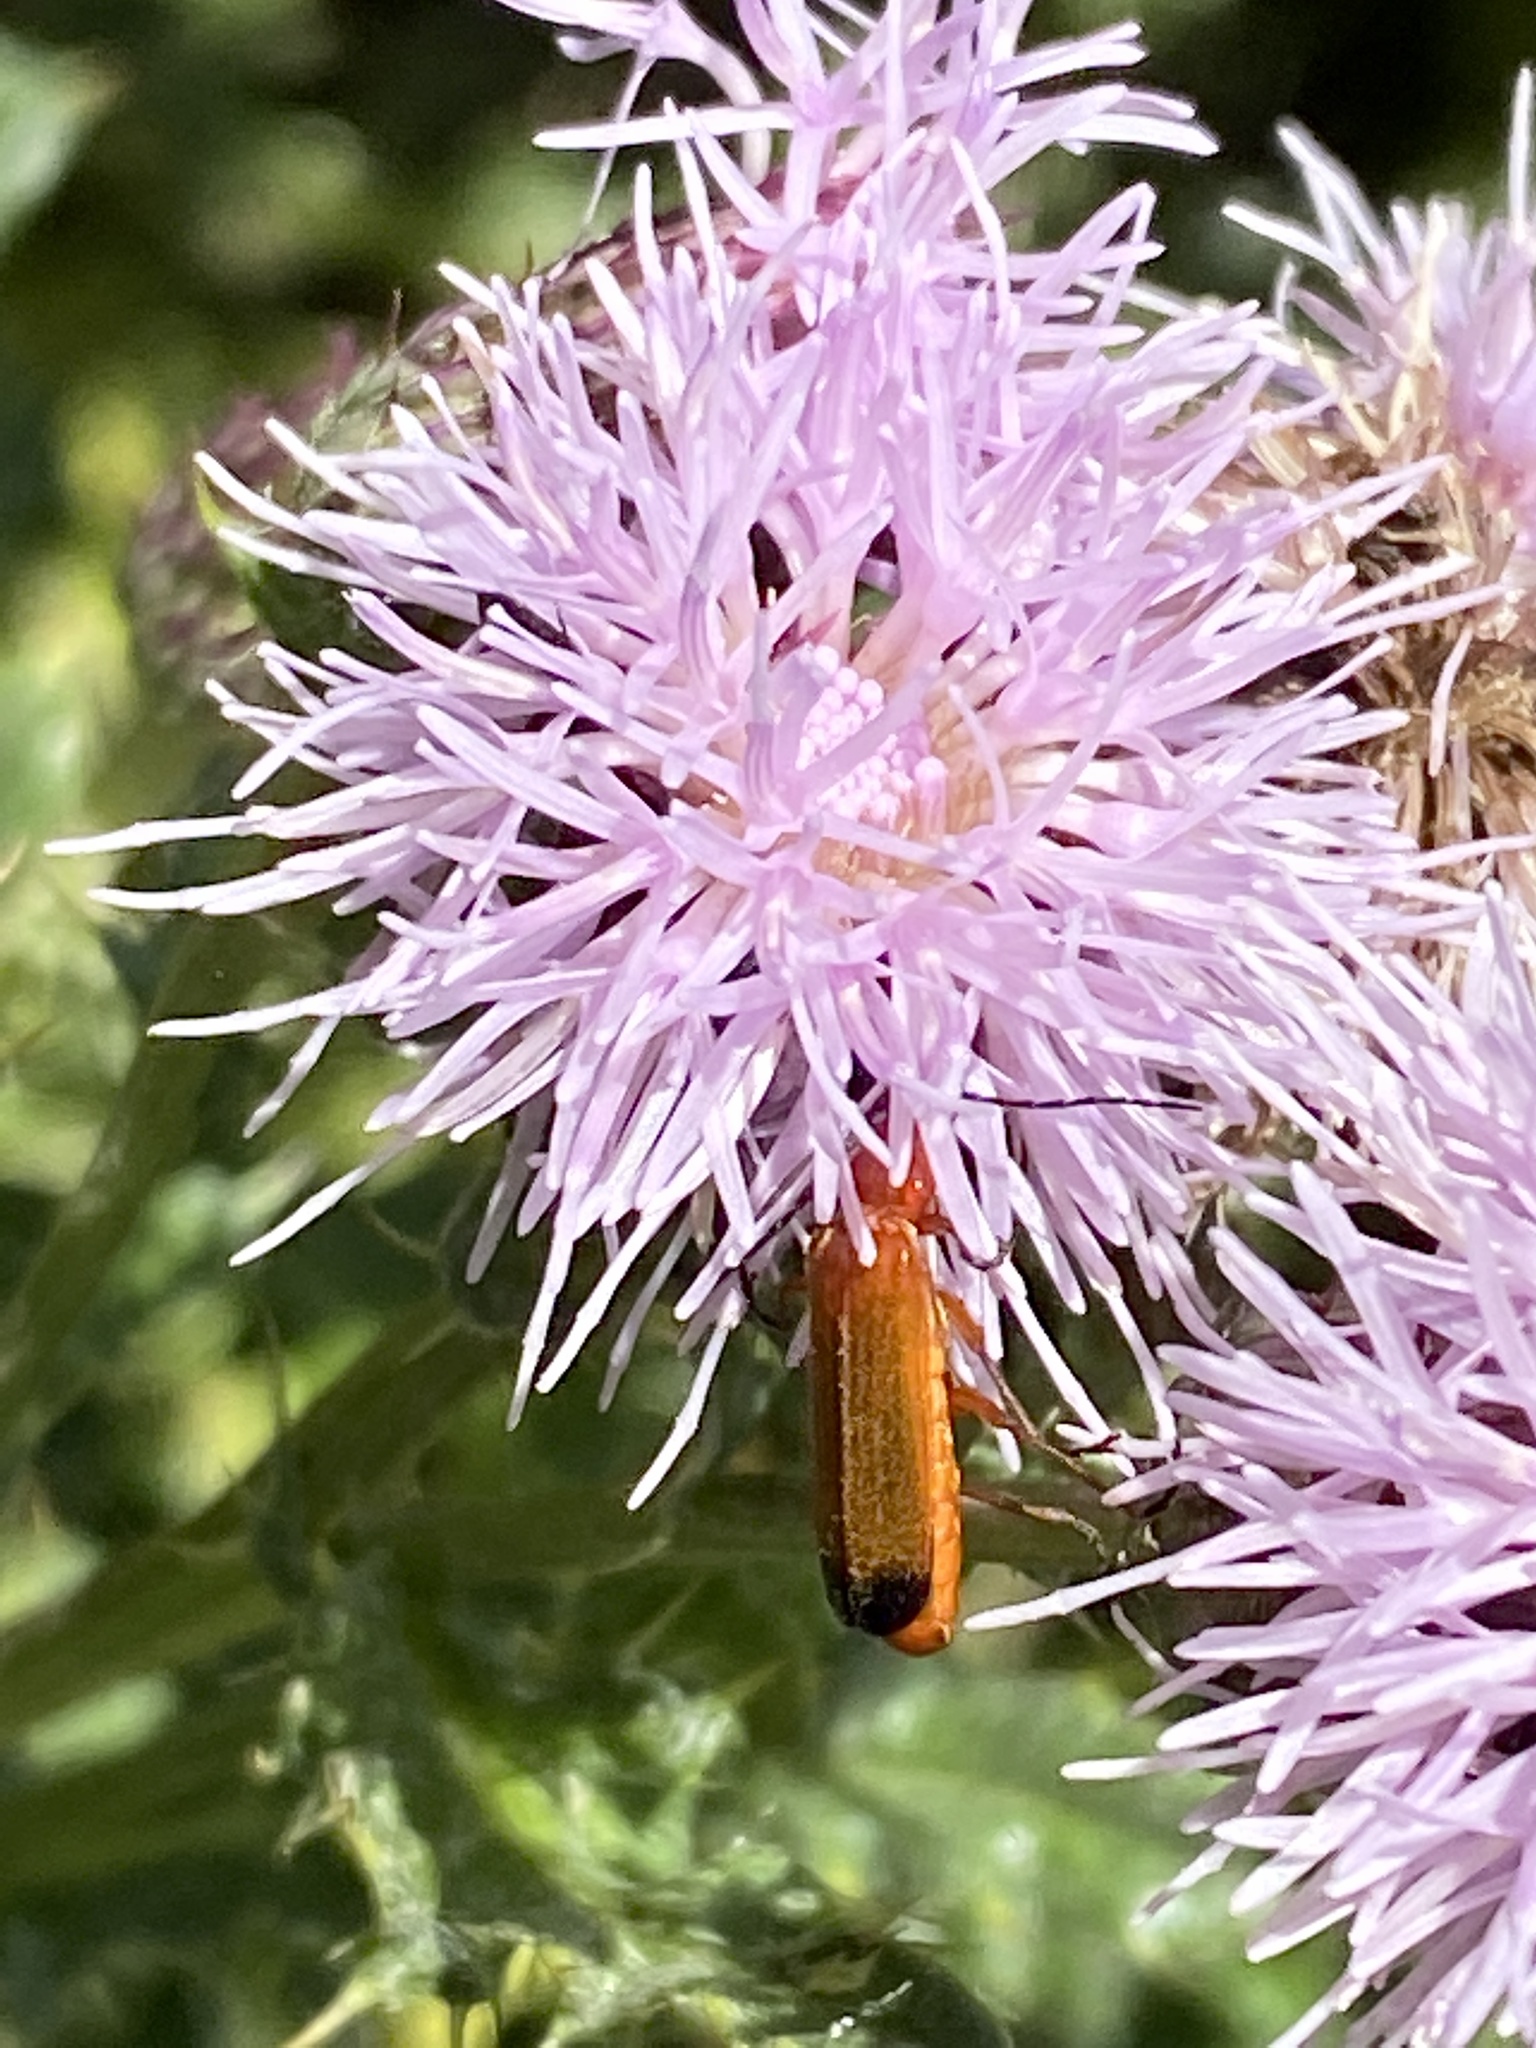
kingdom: Animalia
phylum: Arthropoda
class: Insecta
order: Coleoptera
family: Cantharidae
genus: Rhagonycha
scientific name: Rhagonycha fulva
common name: Common red soldier beetle
